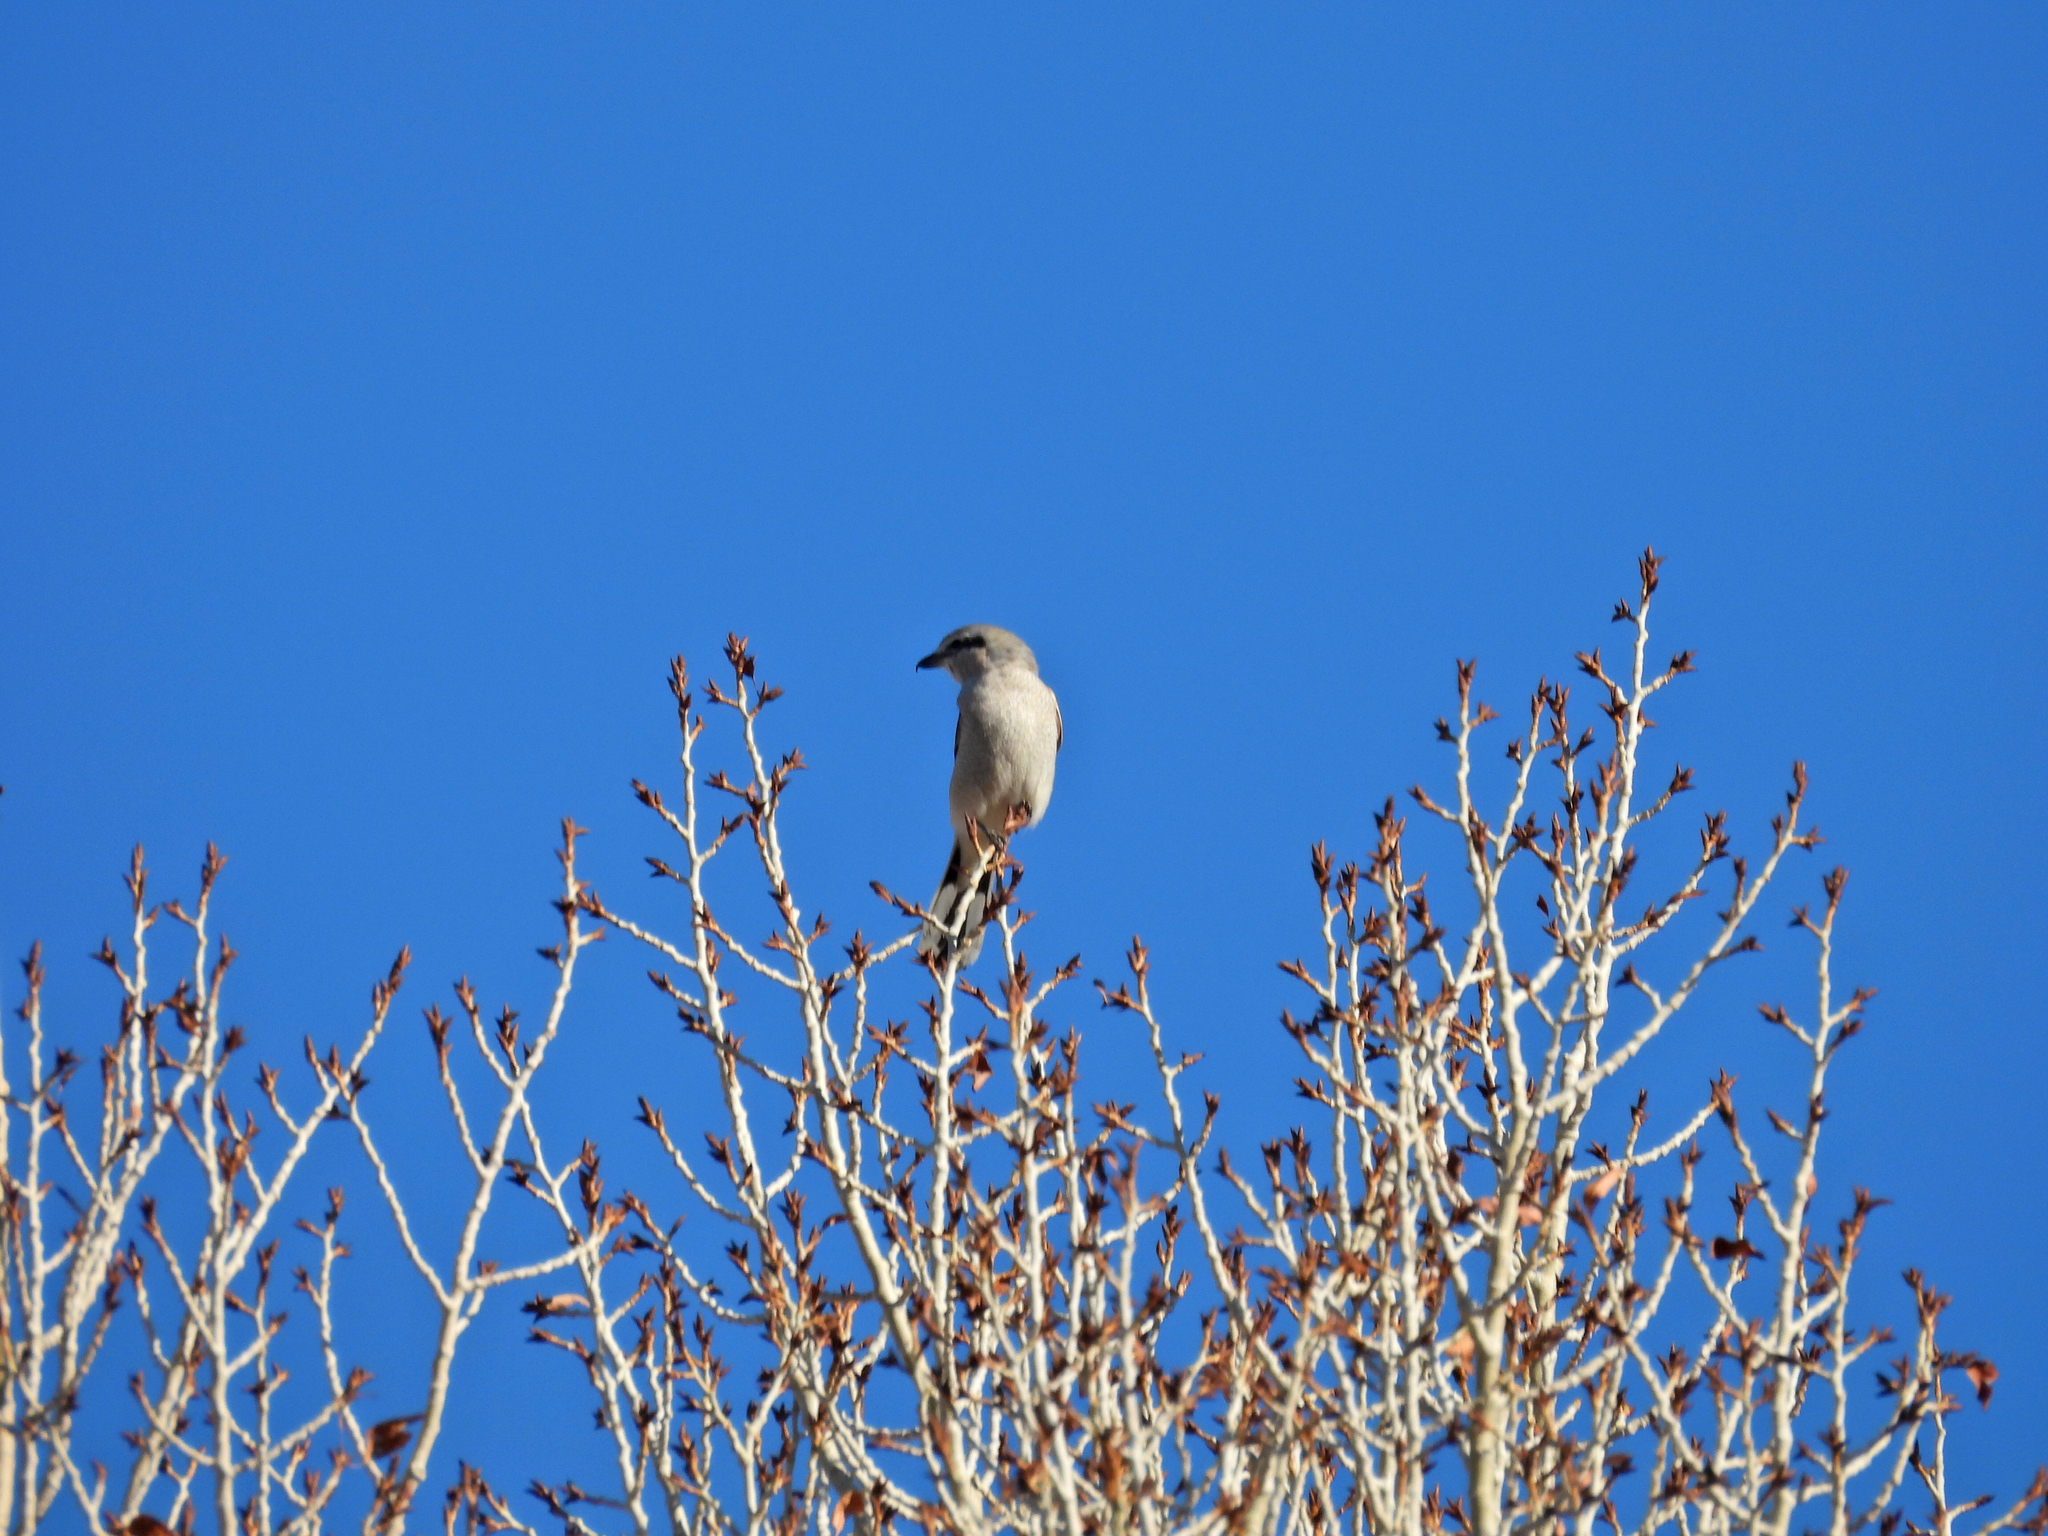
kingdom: Animalia
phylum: Chordata
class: Aves
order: Passeriformes
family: Laniidae
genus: Lanius
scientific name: Lanius borealis
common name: Northern shrike
